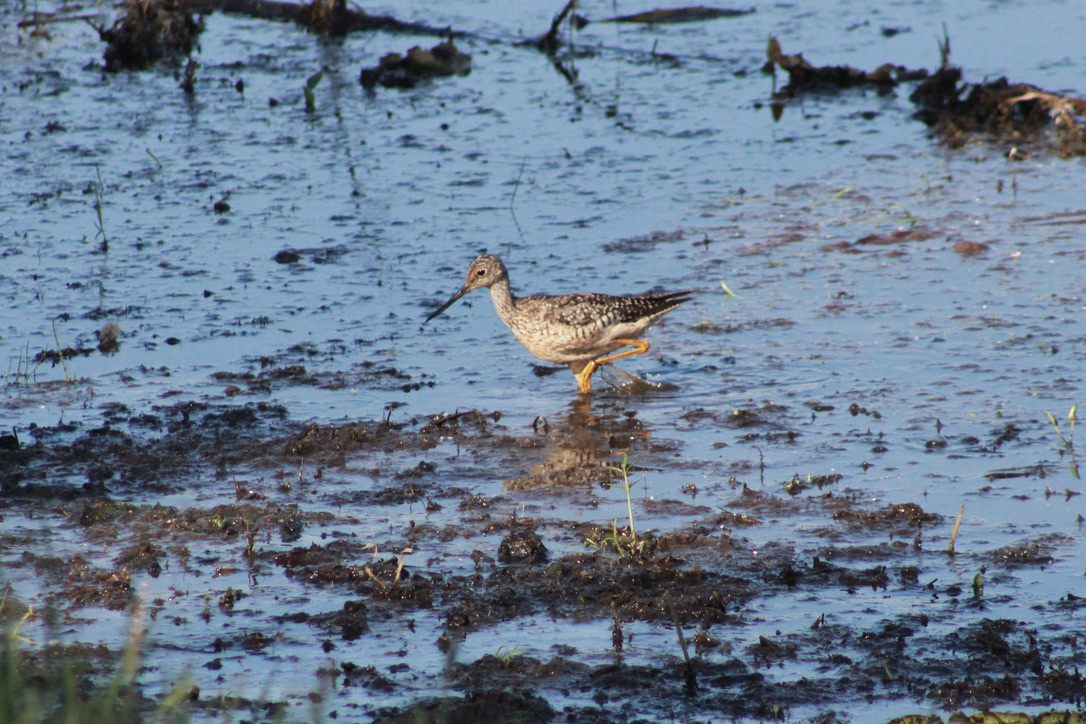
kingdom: Animalia
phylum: Chordata
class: Aves
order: Charadriiformes
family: Scolopacidae
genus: Tringa
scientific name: Tringa melanoleuca
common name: Greater yellowlegs
